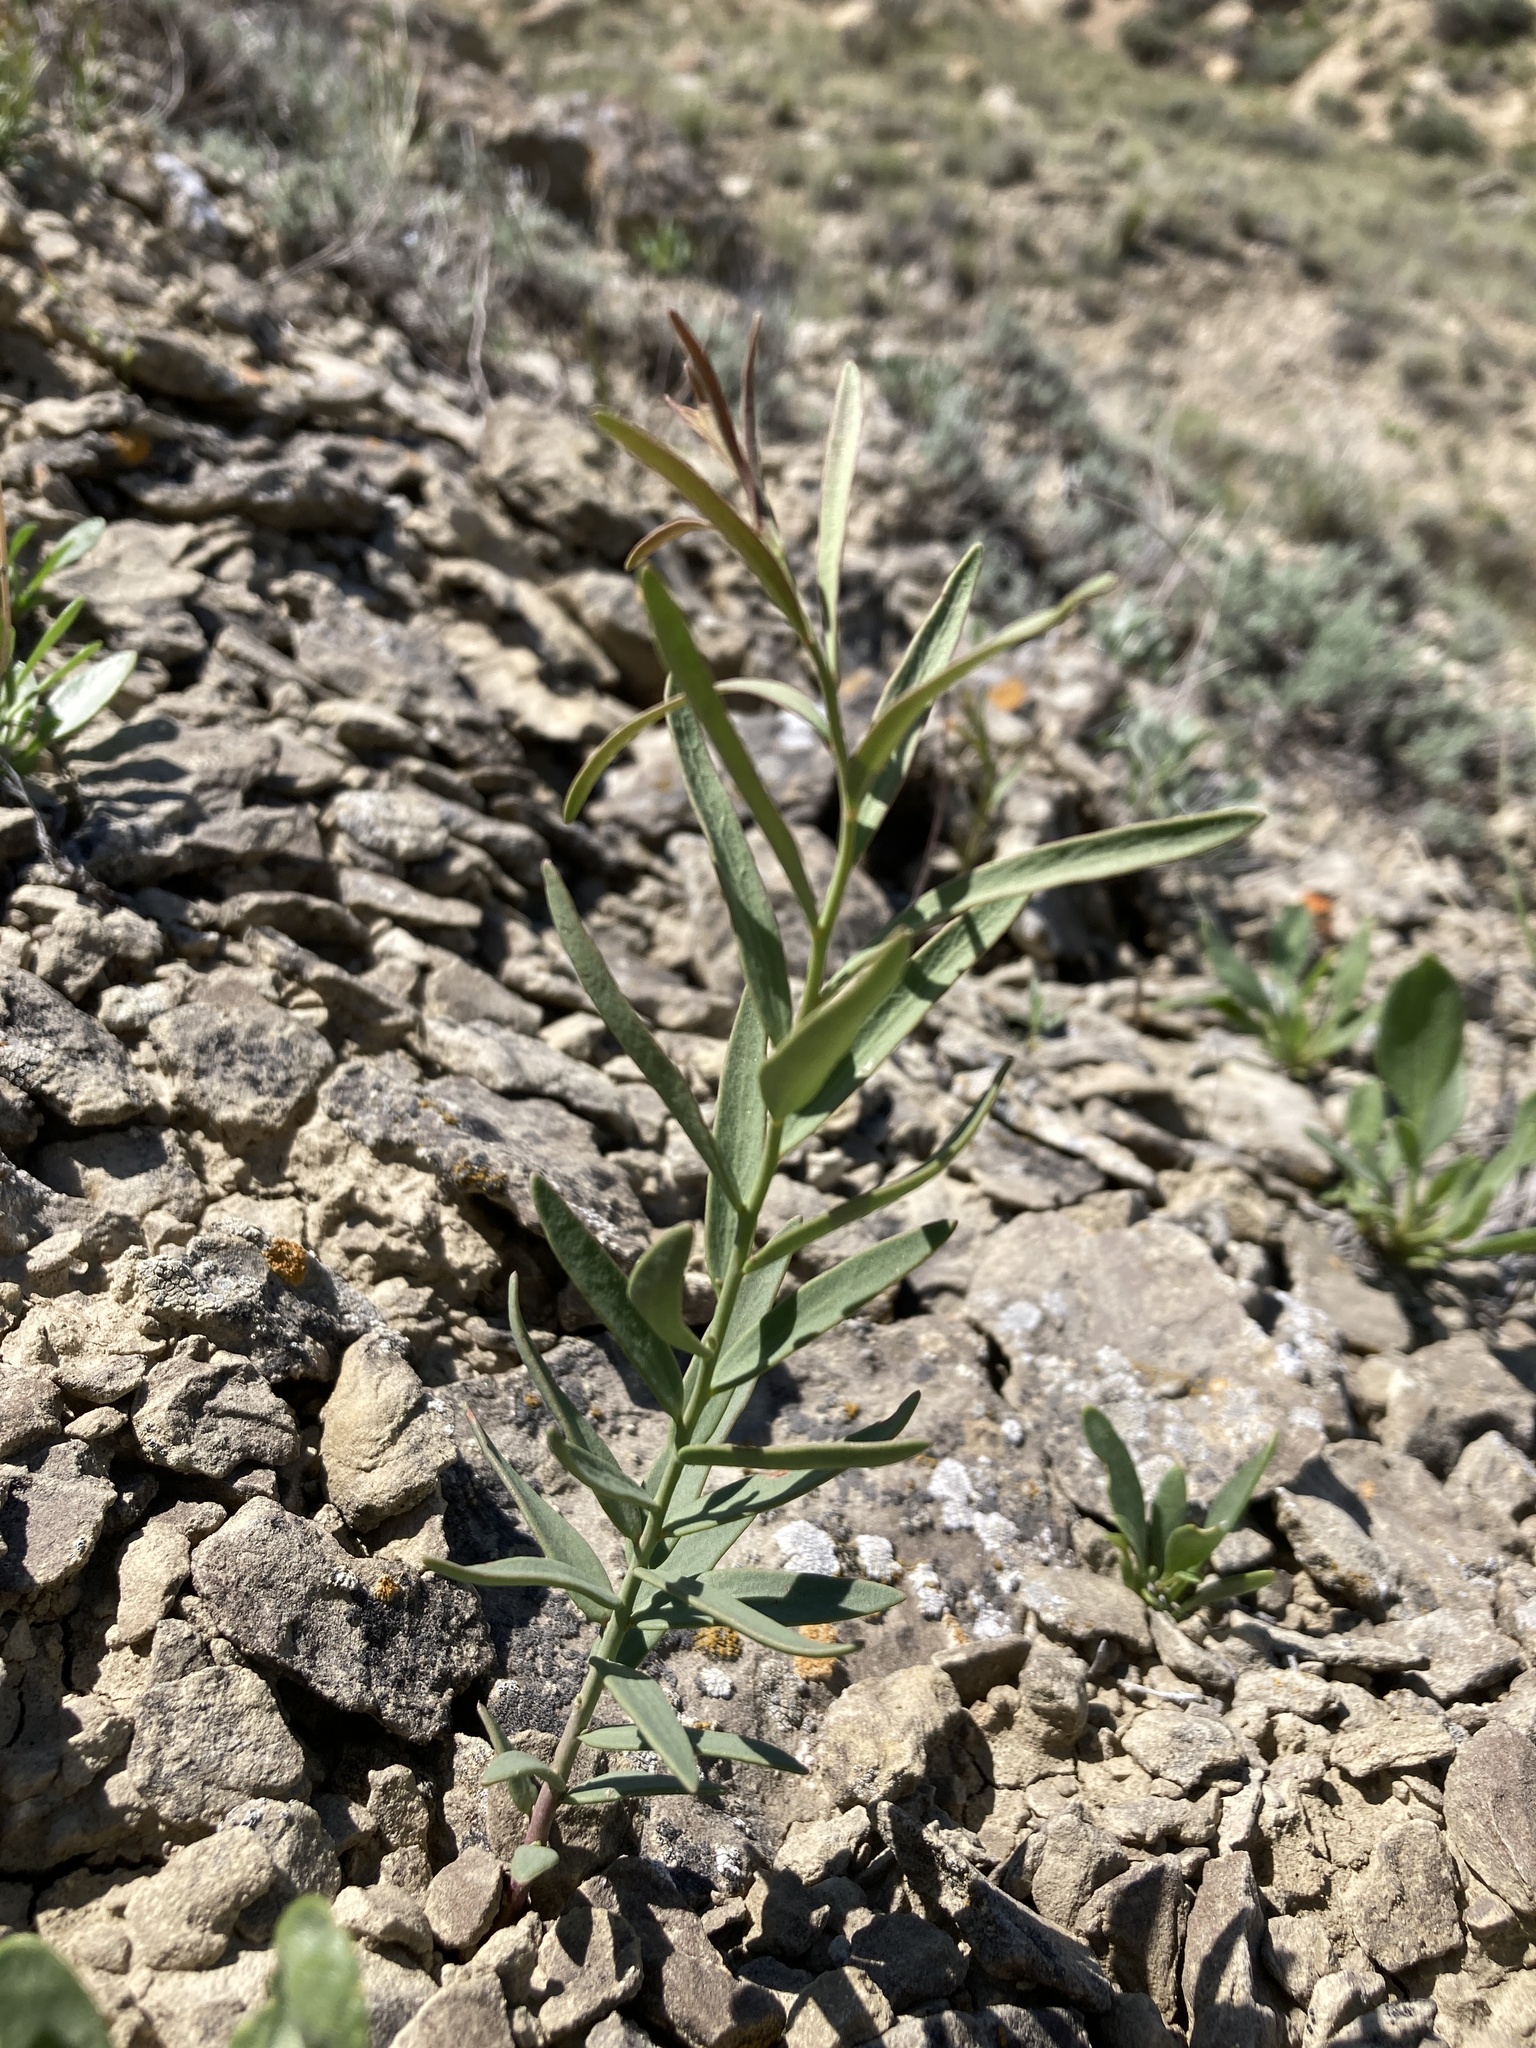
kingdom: Plantae
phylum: Tracheophyta
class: Magnoliopsida
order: Santalales
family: Comandraceae
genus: Comandra
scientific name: Comandra umbellata
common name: Bastard toadflax
